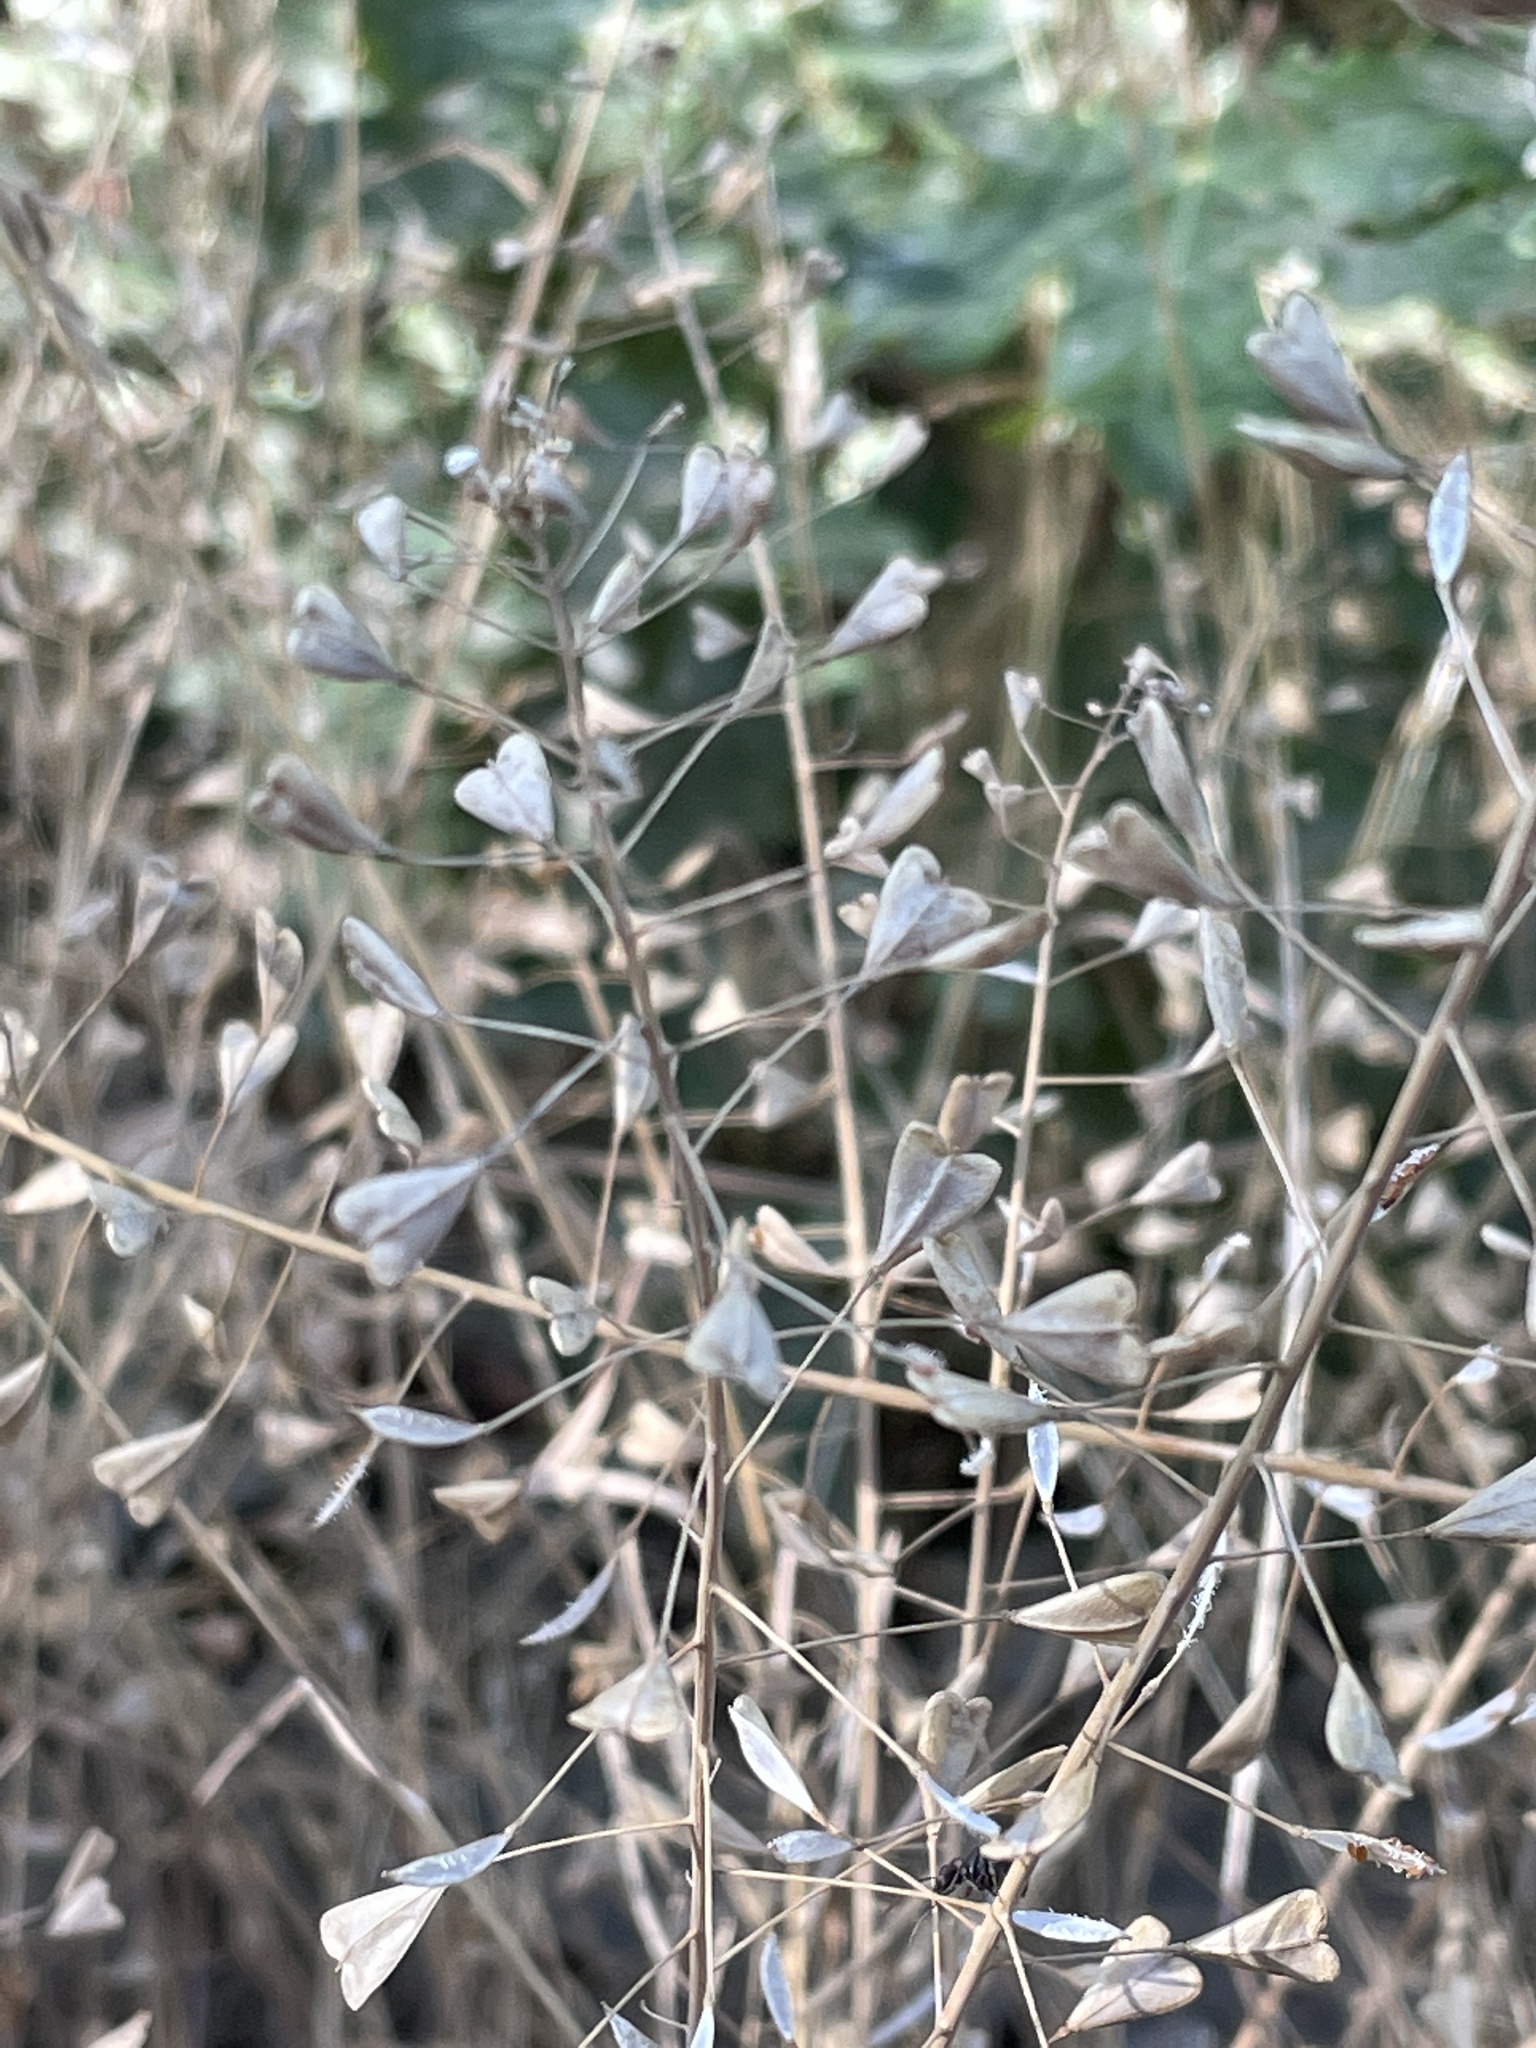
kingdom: Plantae
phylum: Tracheophyta
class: Magnoliopsida
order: Brassicales
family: Brassicaceae
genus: Capsella
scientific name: Capsella bursa-pastoris
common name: Shepherd's purse
